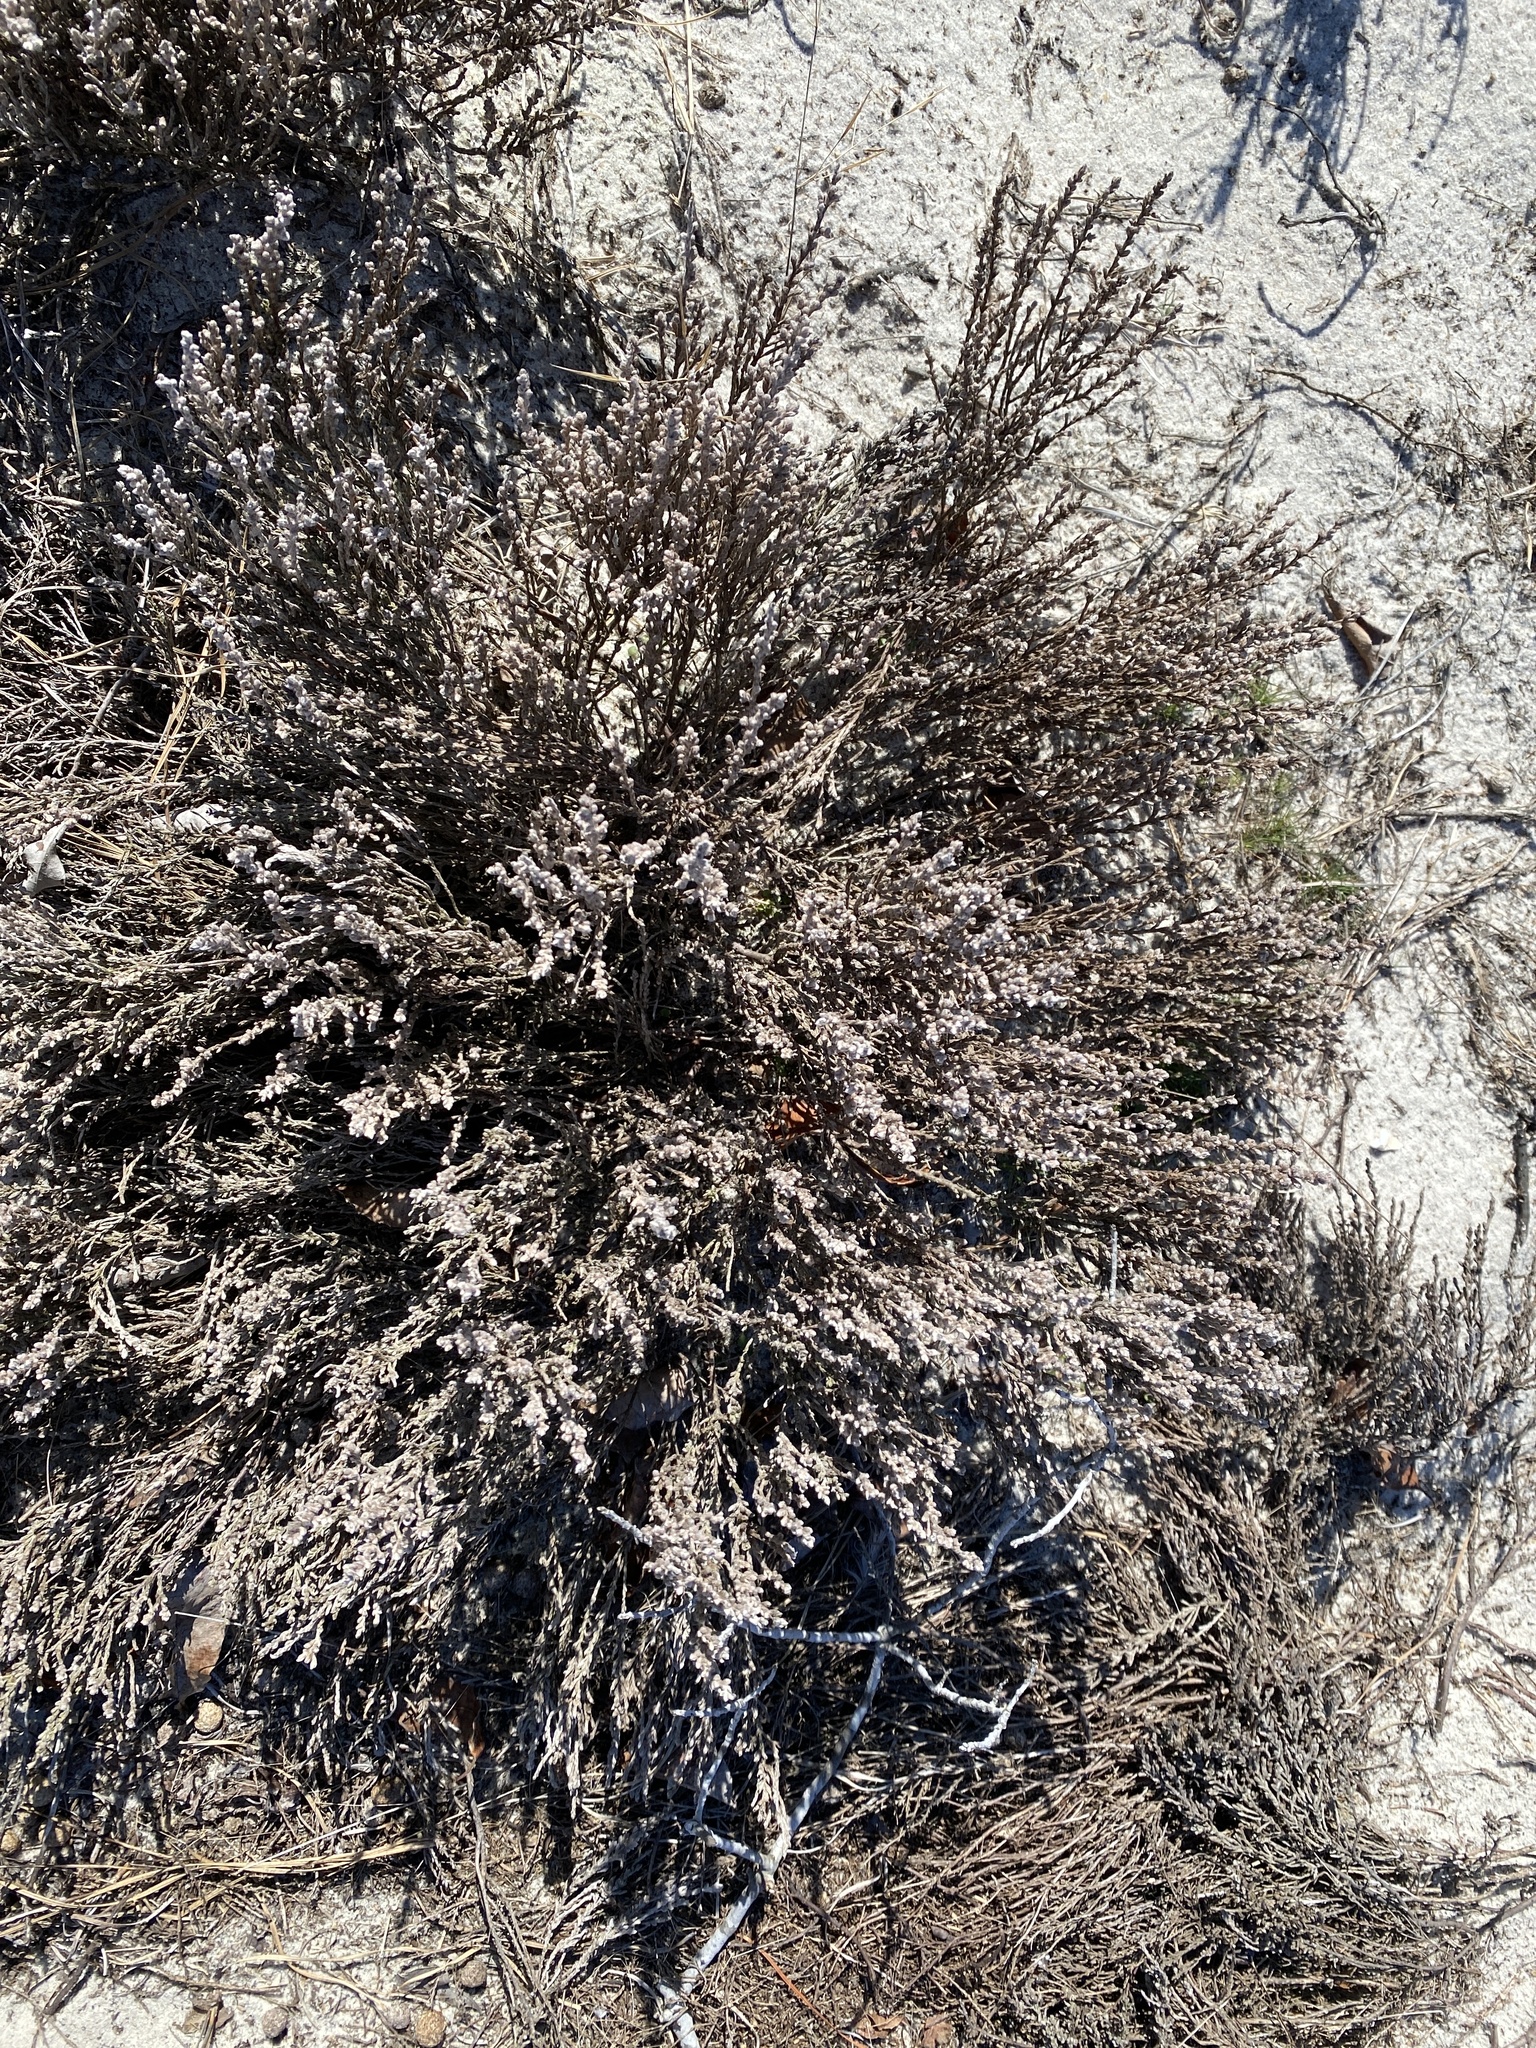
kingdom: Plantae
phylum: Tracheophyta
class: Magnoliopsida
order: Malvales
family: Cistaceae
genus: Hudsonia
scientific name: Hudsonia tomentosa
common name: Beach-heath
